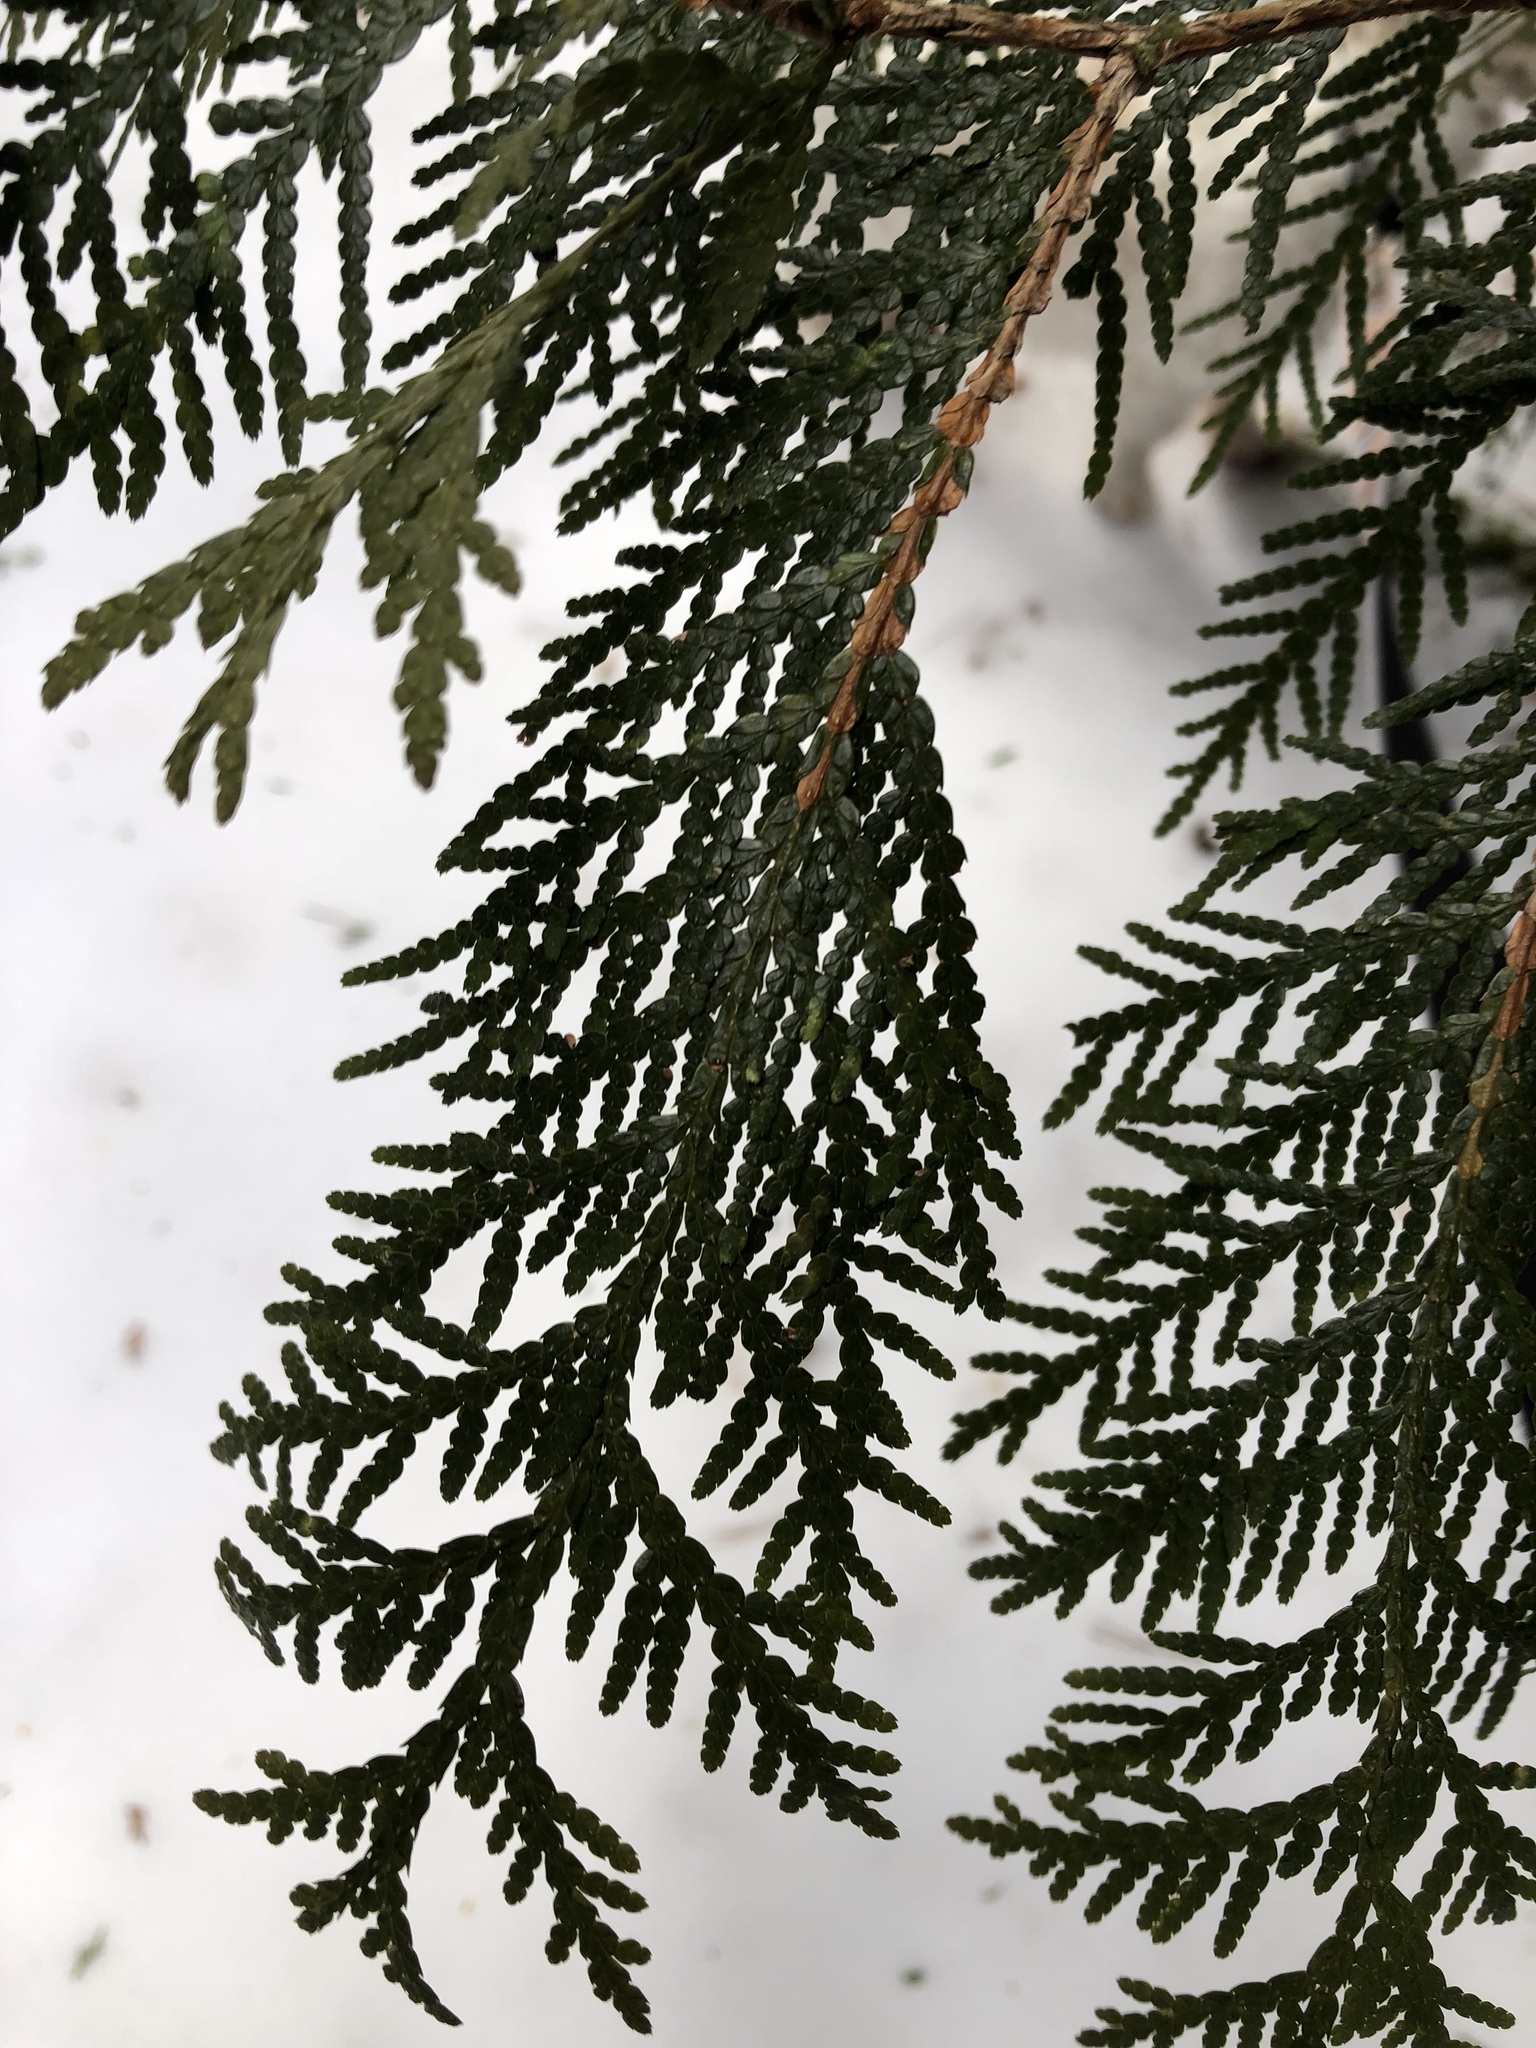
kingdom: Plantae
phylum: Tracheophyta
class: Pinopsida
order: Pinales
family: Cupressaceae
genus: Thuja
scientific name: Thuja occidentalis
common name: Northern white-cedar
